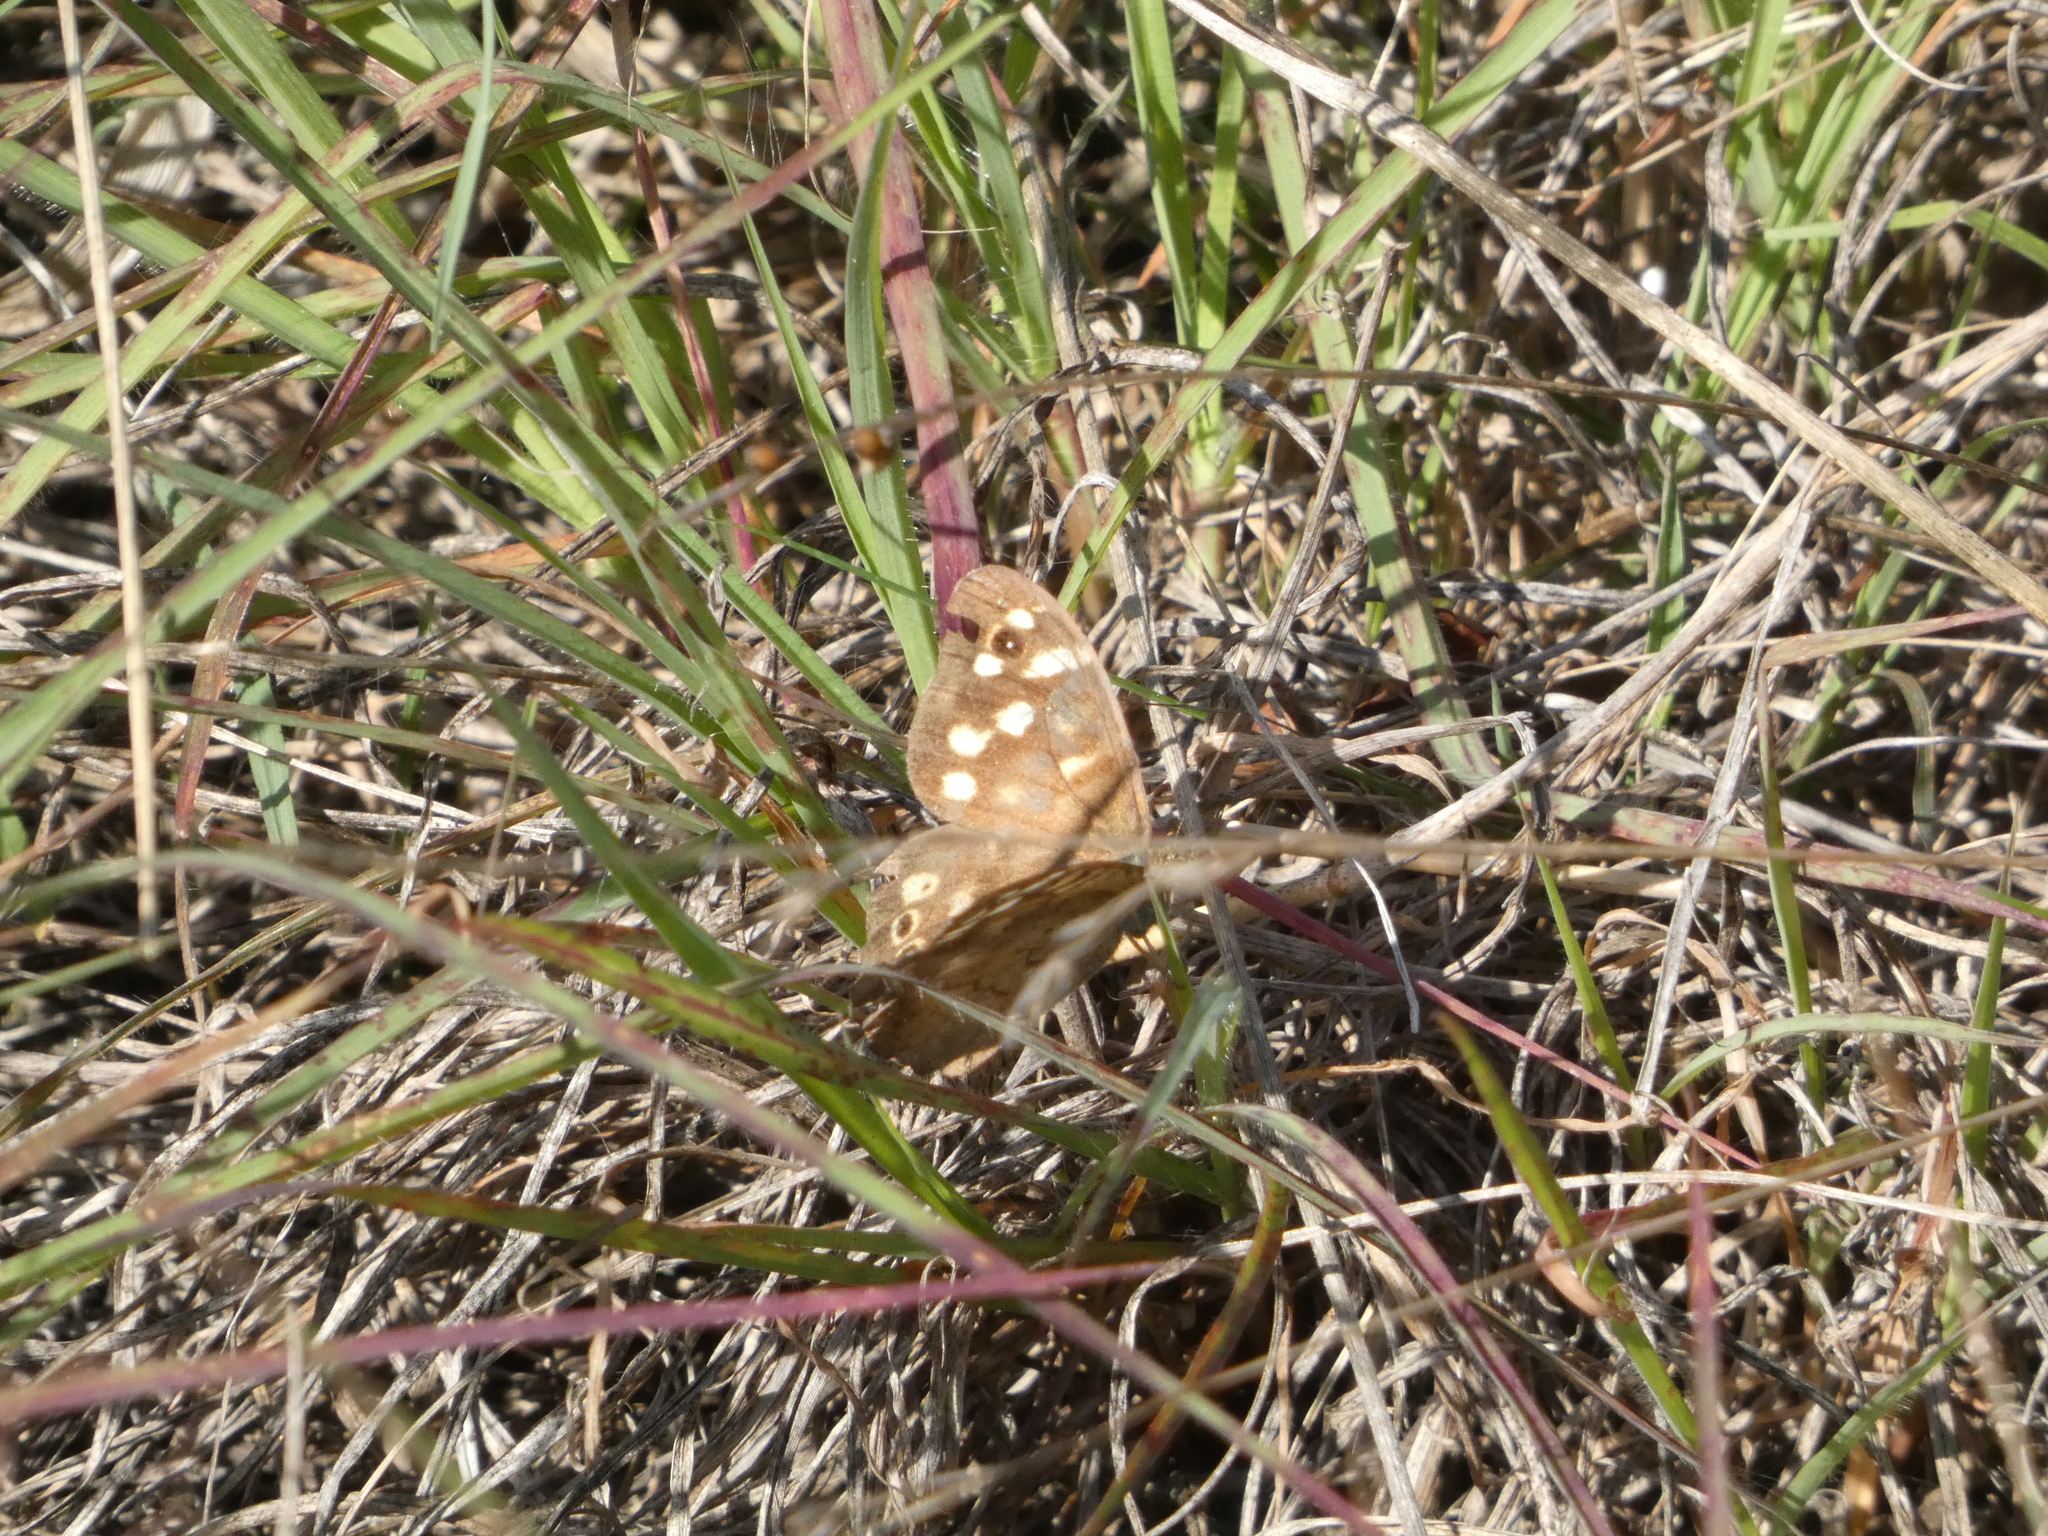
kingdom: Animalia
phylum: Arthropoda
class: Insecta
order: Lepidoptera
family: Nymphalidae
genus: Pararge
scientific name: Pararge aegeria
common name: Speckled wood
